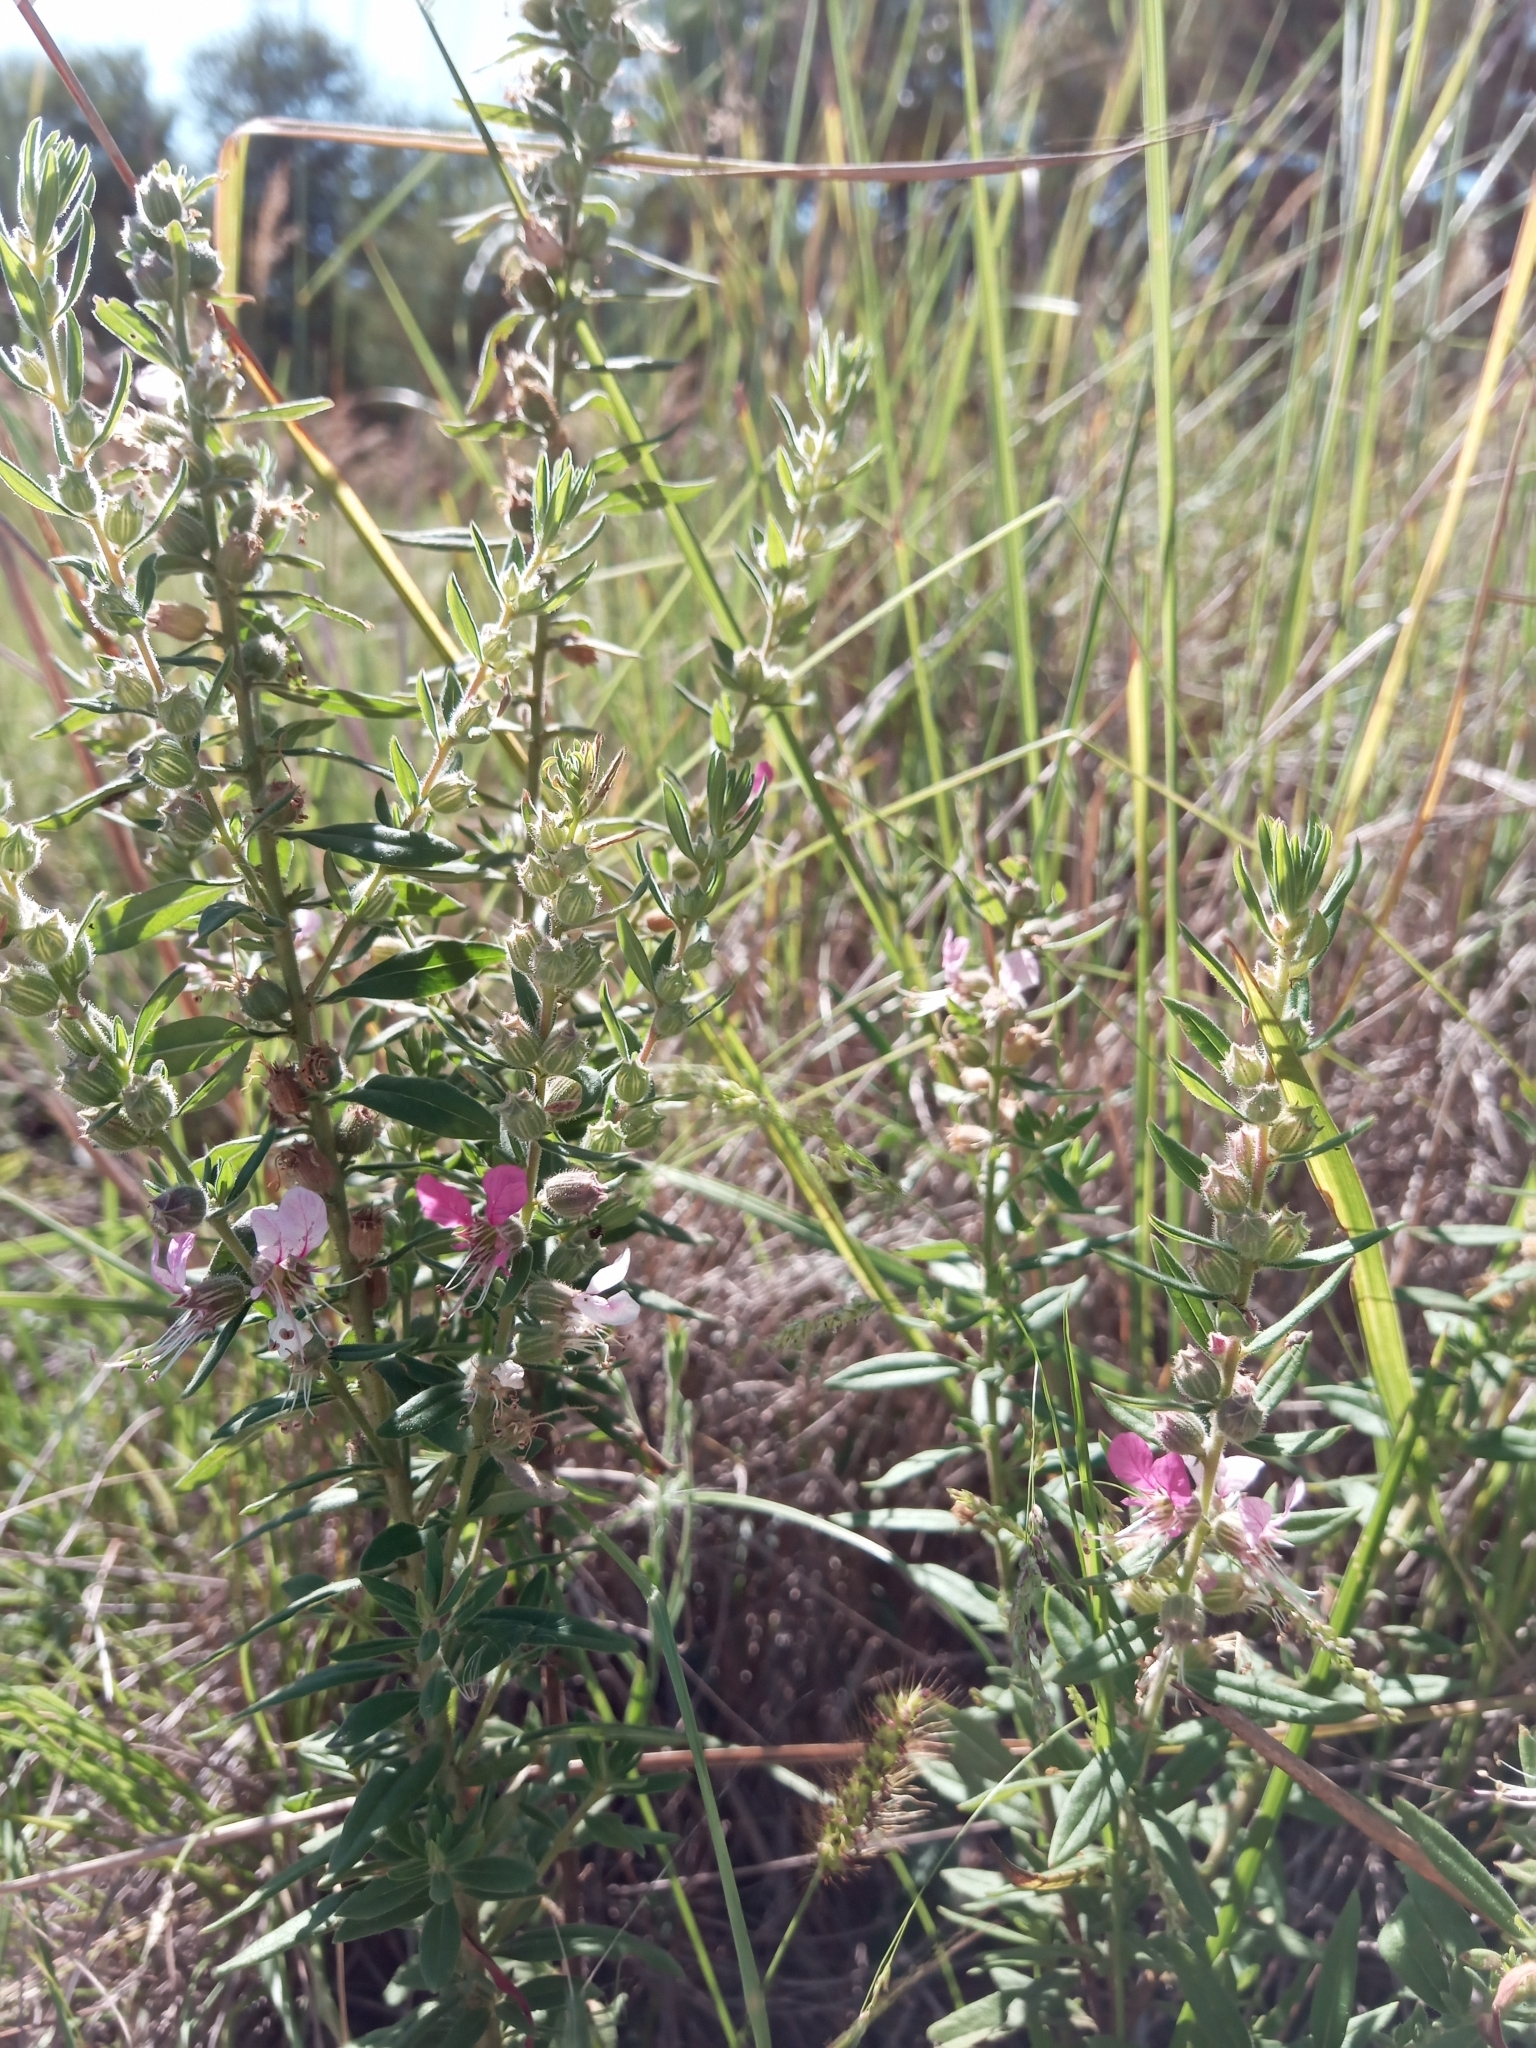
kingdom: Plantae
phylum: Tracheophyta
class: Magnoliopsida
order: Myrtales
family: Lythraceae
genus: Pleurophora
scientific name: Pleurophora saccocarpa
